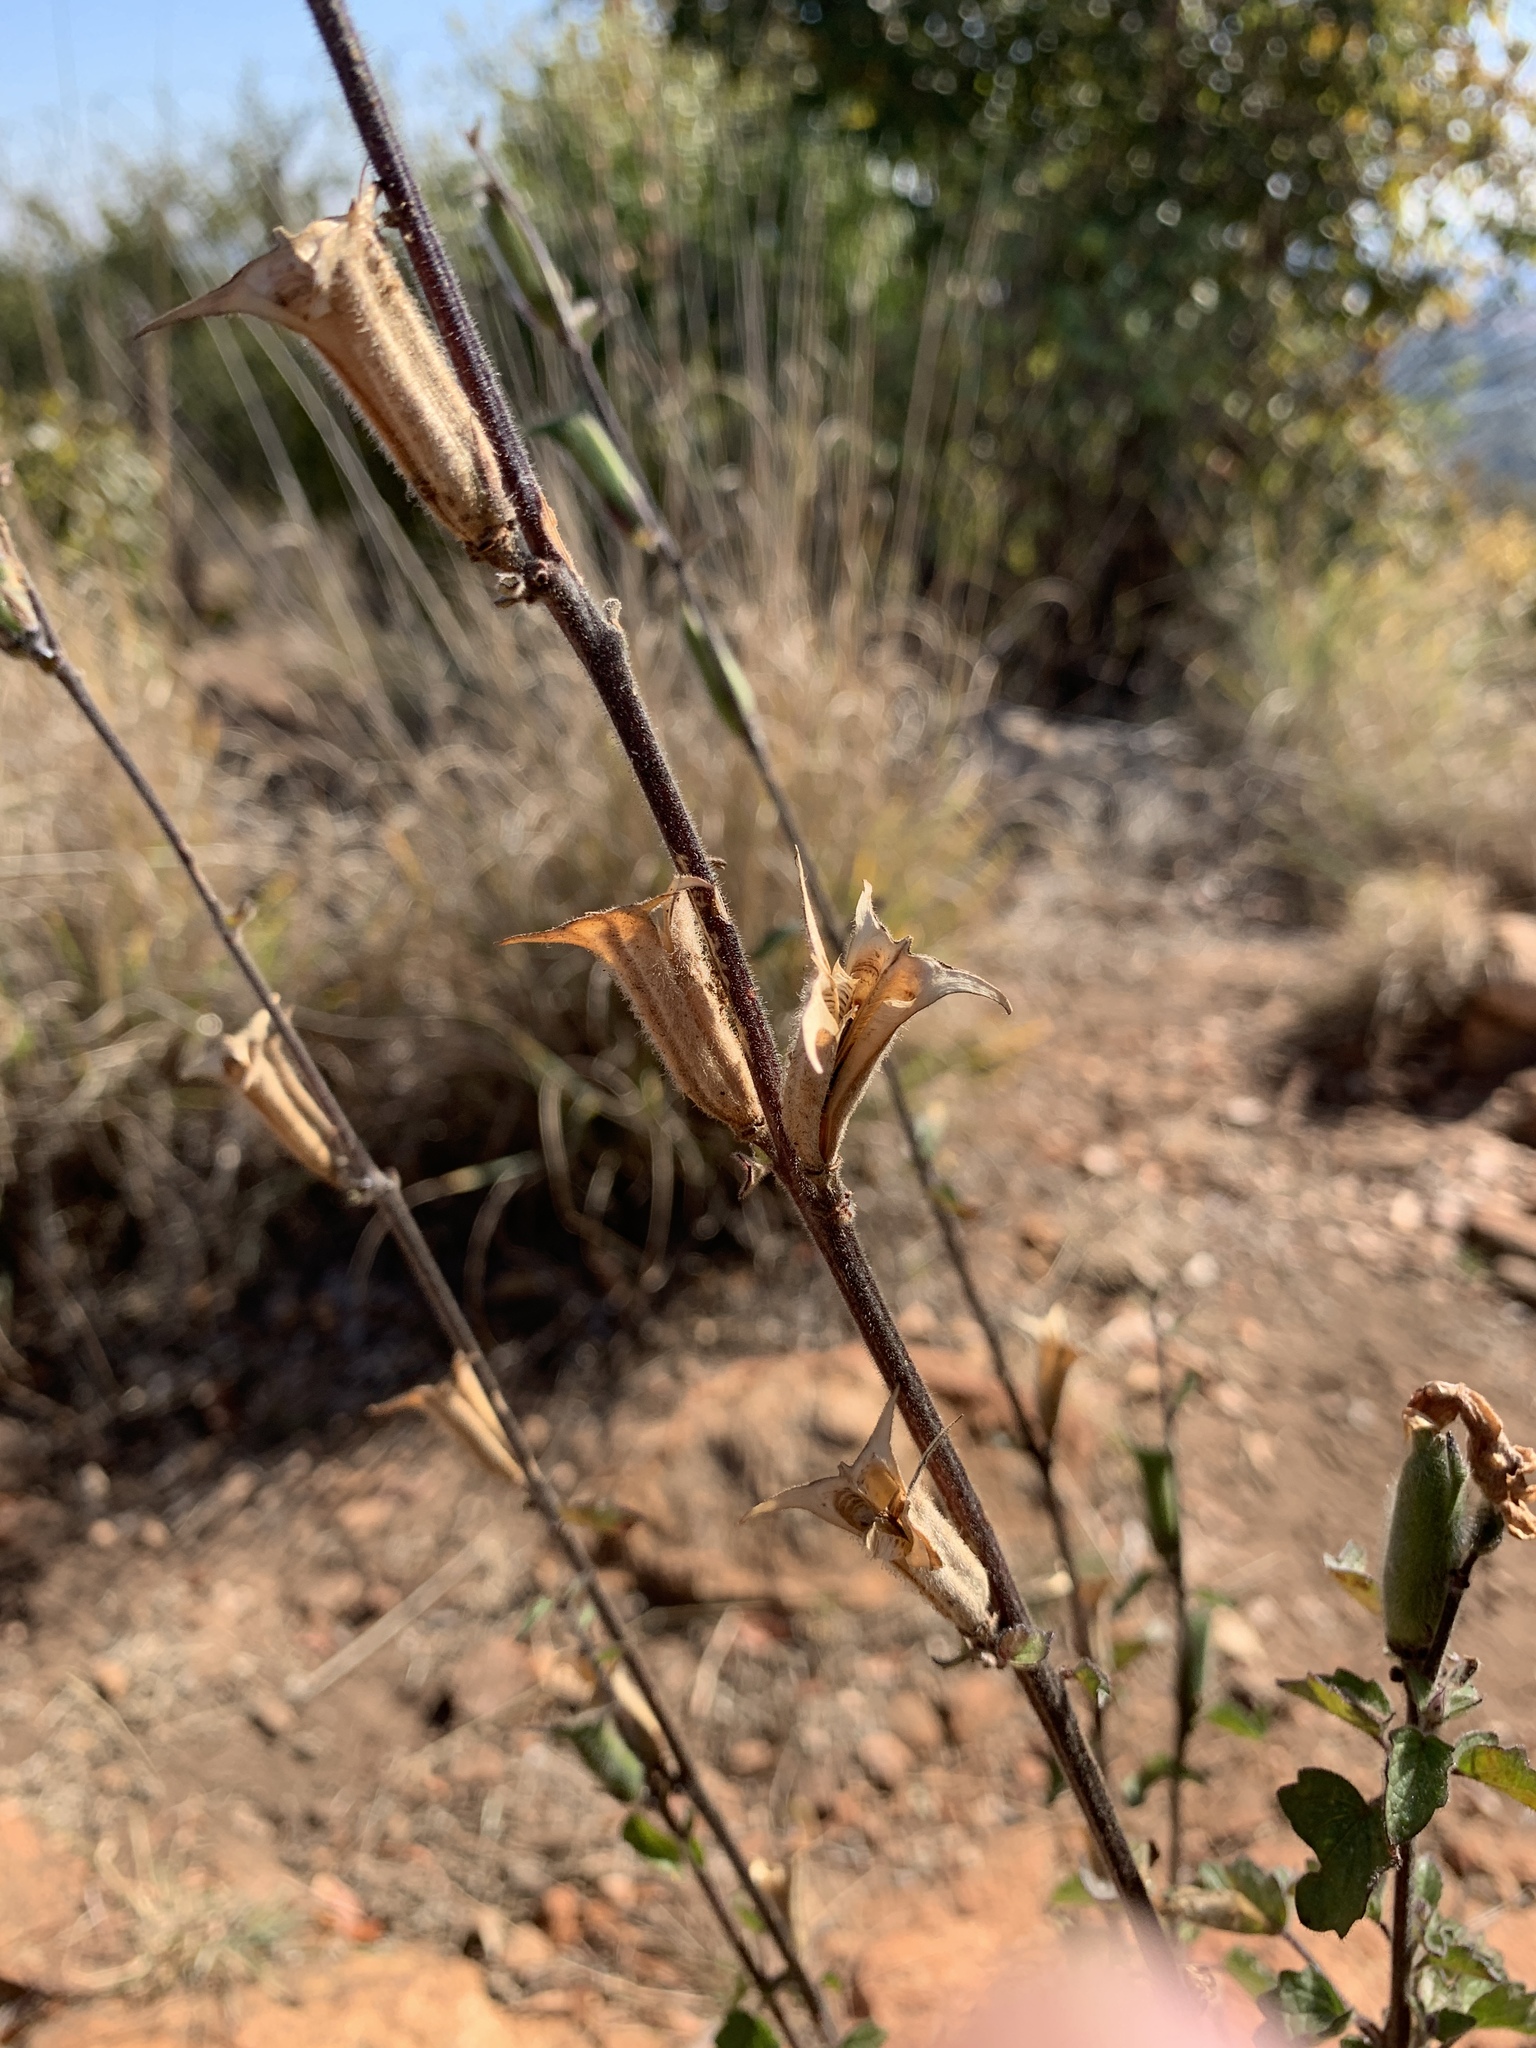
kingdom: Plantae
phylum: Tracheophyta
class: Magnoliopsida
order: Lamiales
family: Pedaliaceae
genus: Sesamum
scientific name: Sesamum trilobum
